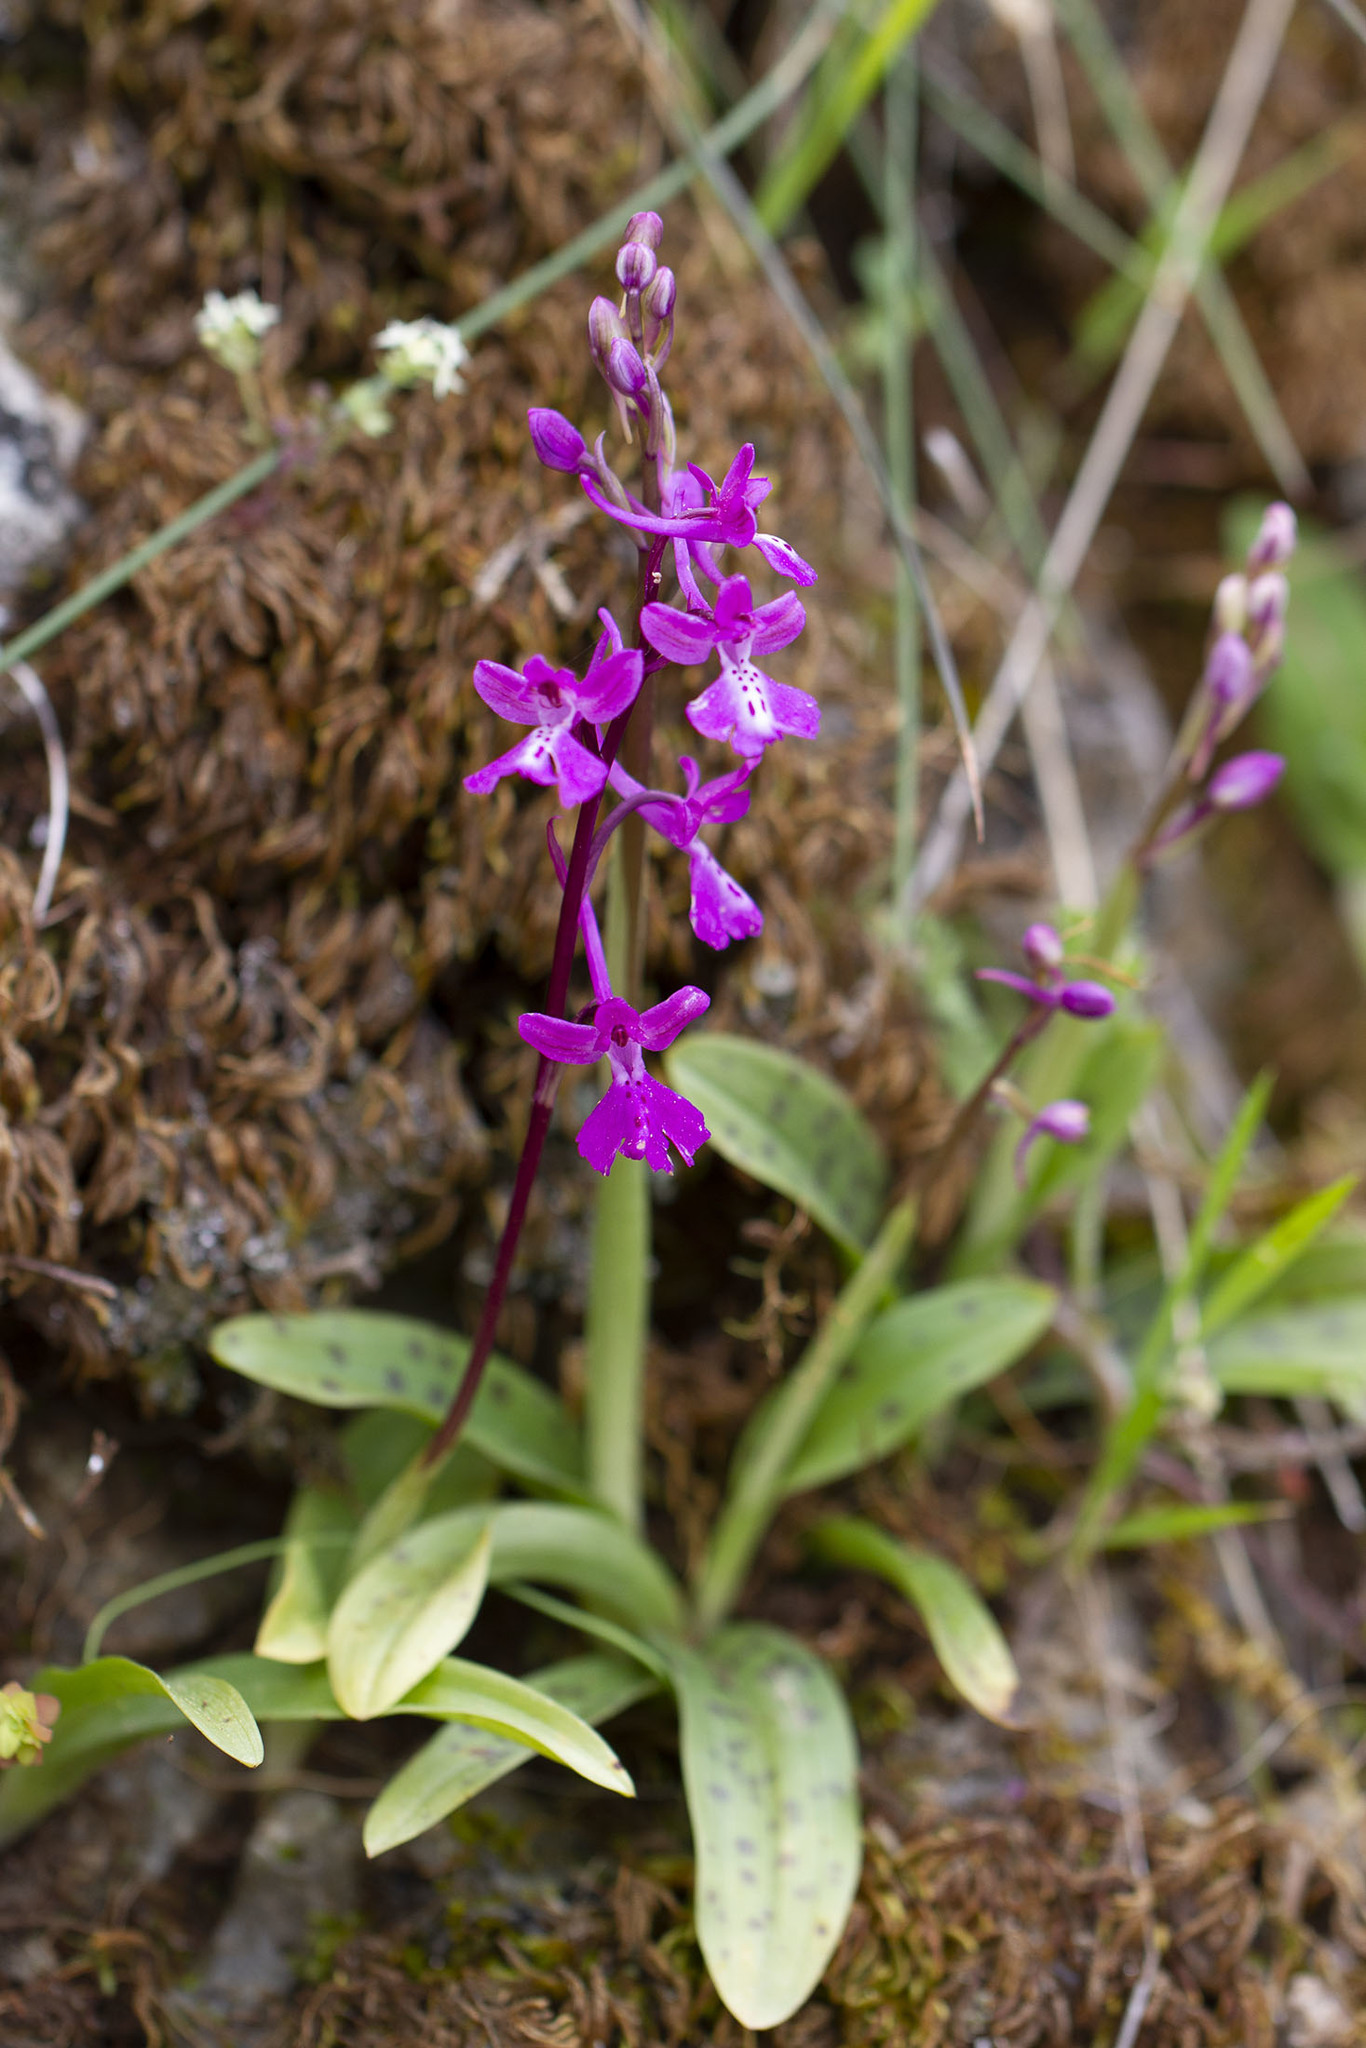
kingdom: Plantae
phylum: Tracheophyta
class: Liliopsida
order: Asparagales
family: Orchidaceae
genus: Orchis
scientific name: Orchis anatolica
